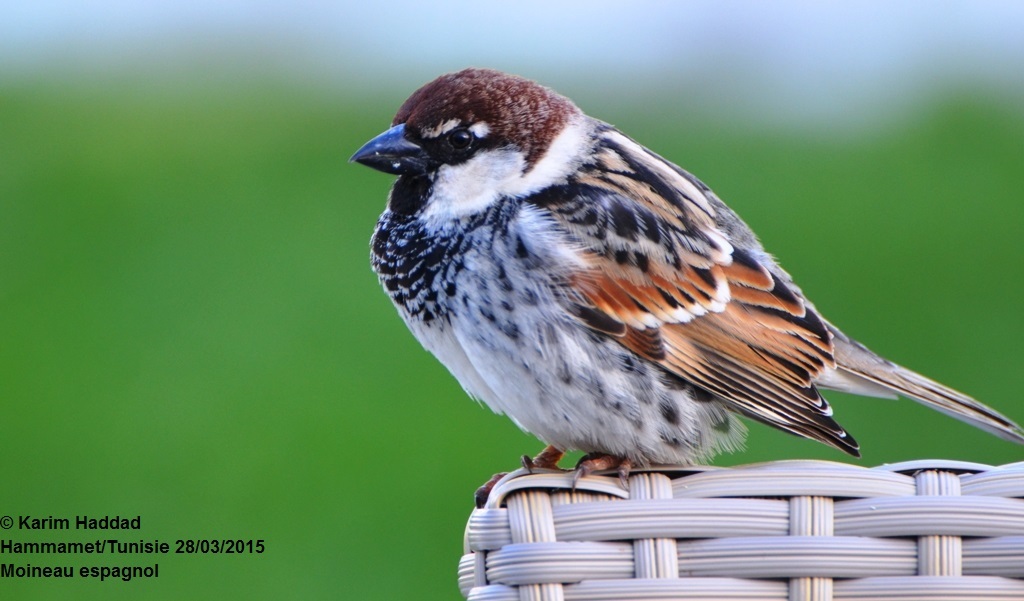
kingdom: Animalia
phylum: Chordata
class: Aves
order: Passeriformes
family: Passeridae
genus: Passer
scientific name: Passer hispaniolensis
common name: Spanish sparrow
